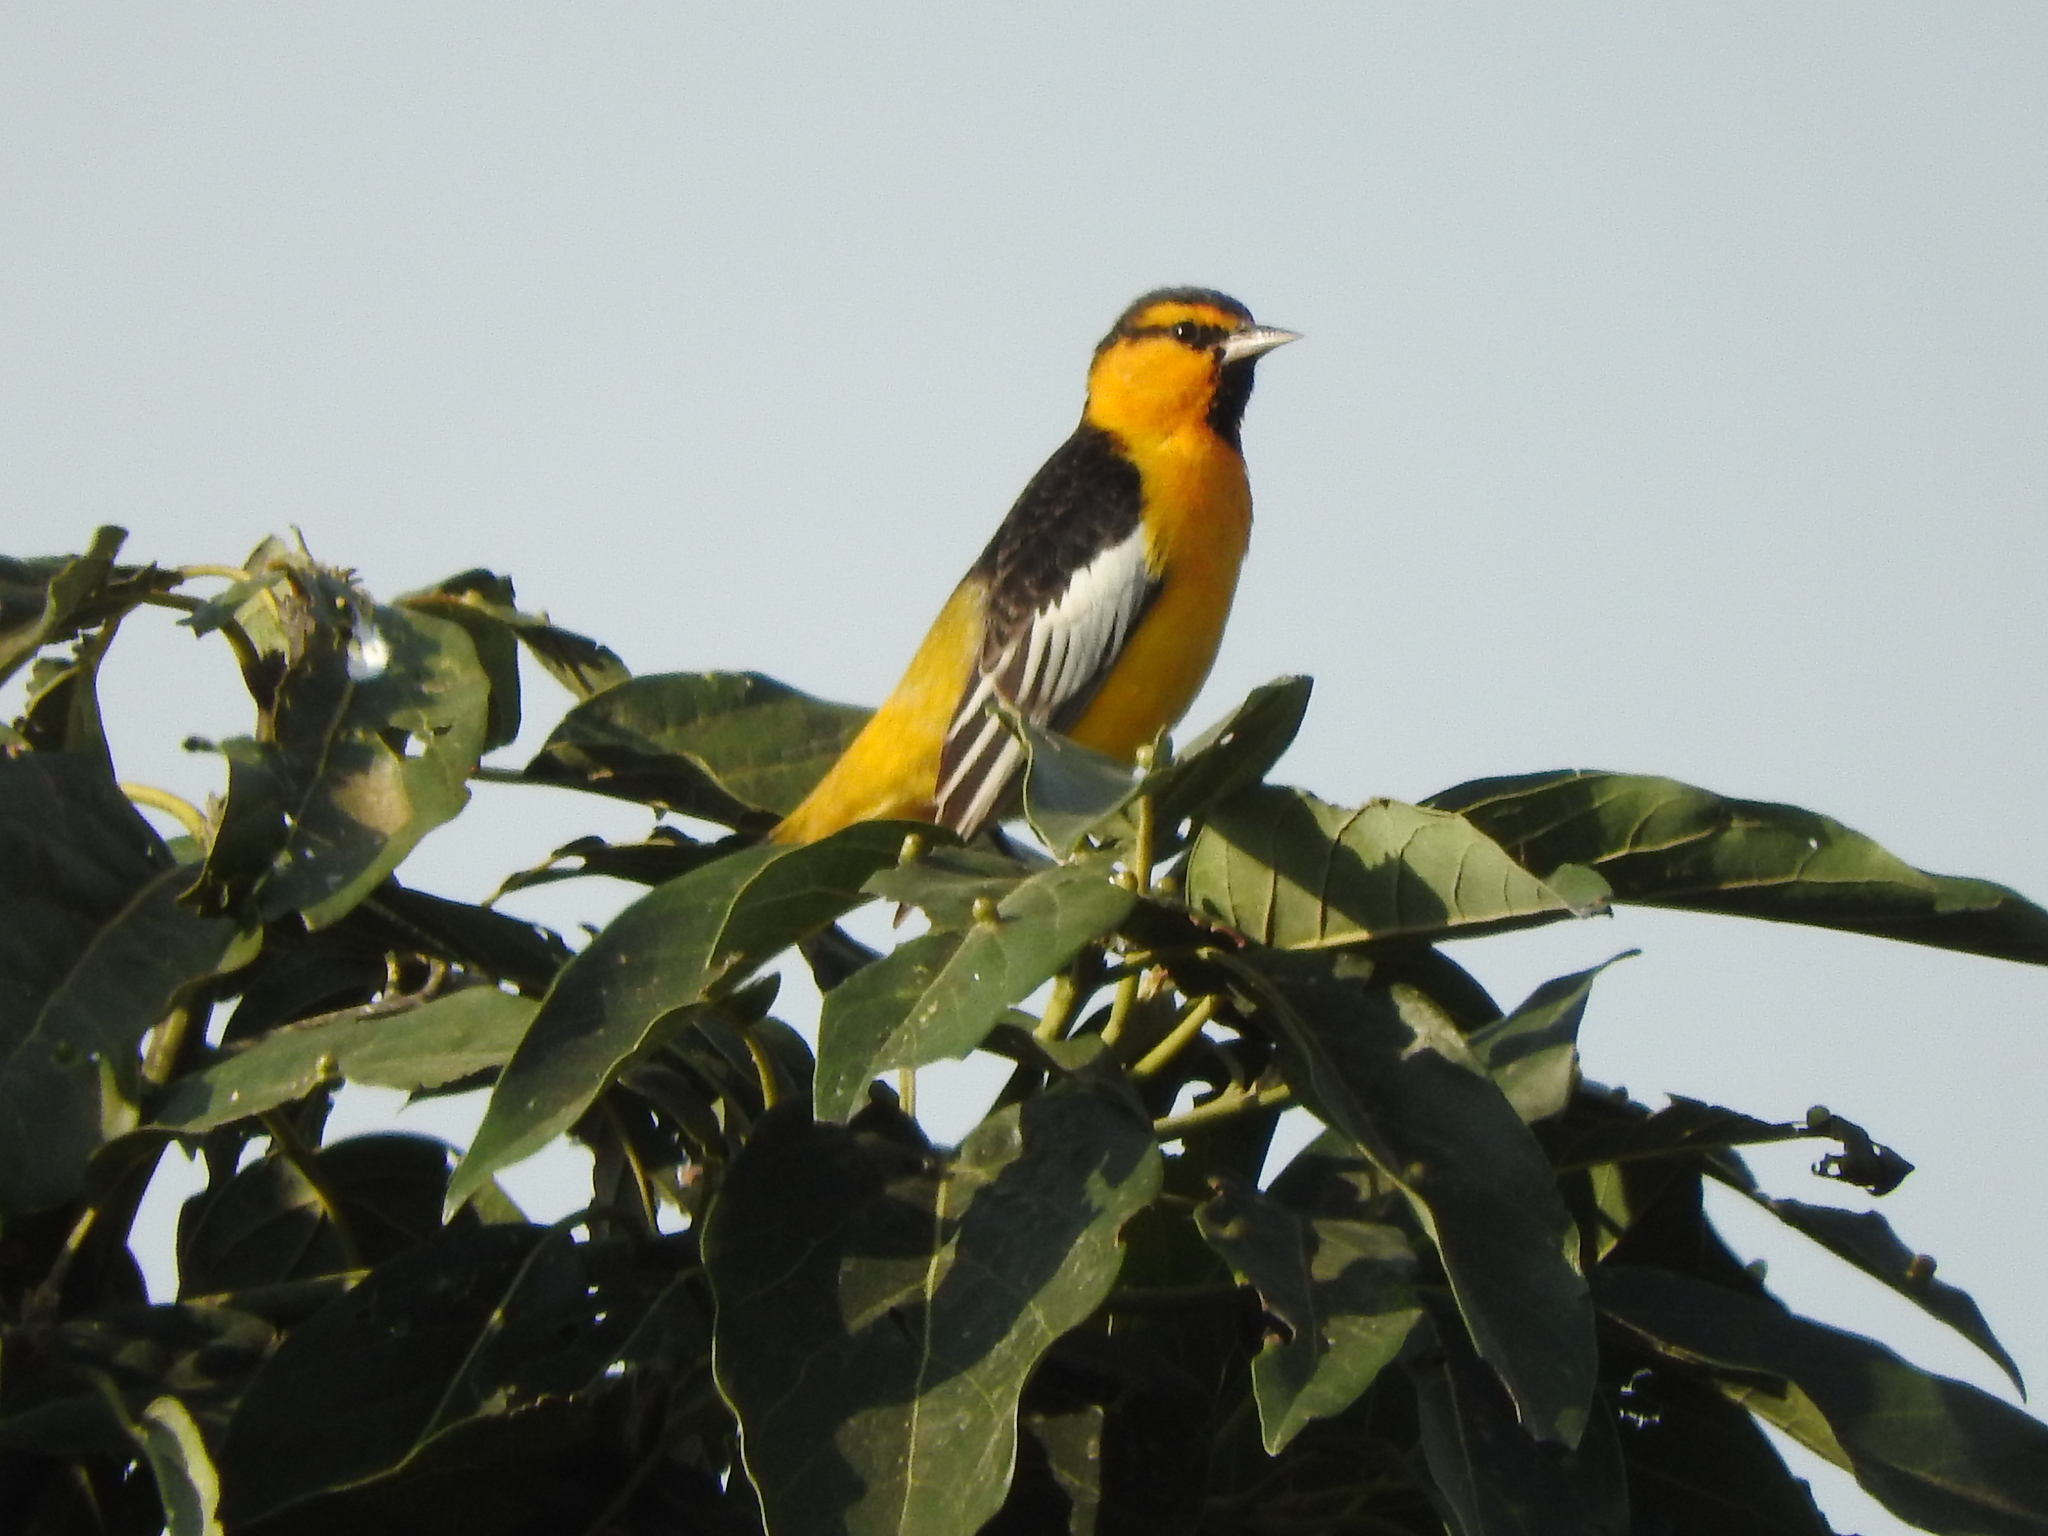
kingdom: Animalia
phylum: Chordata
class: Aves
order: Passeriformes
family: Icteridae
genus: Icterus
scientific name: Icterus bullockii
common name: Bullock's oriole
